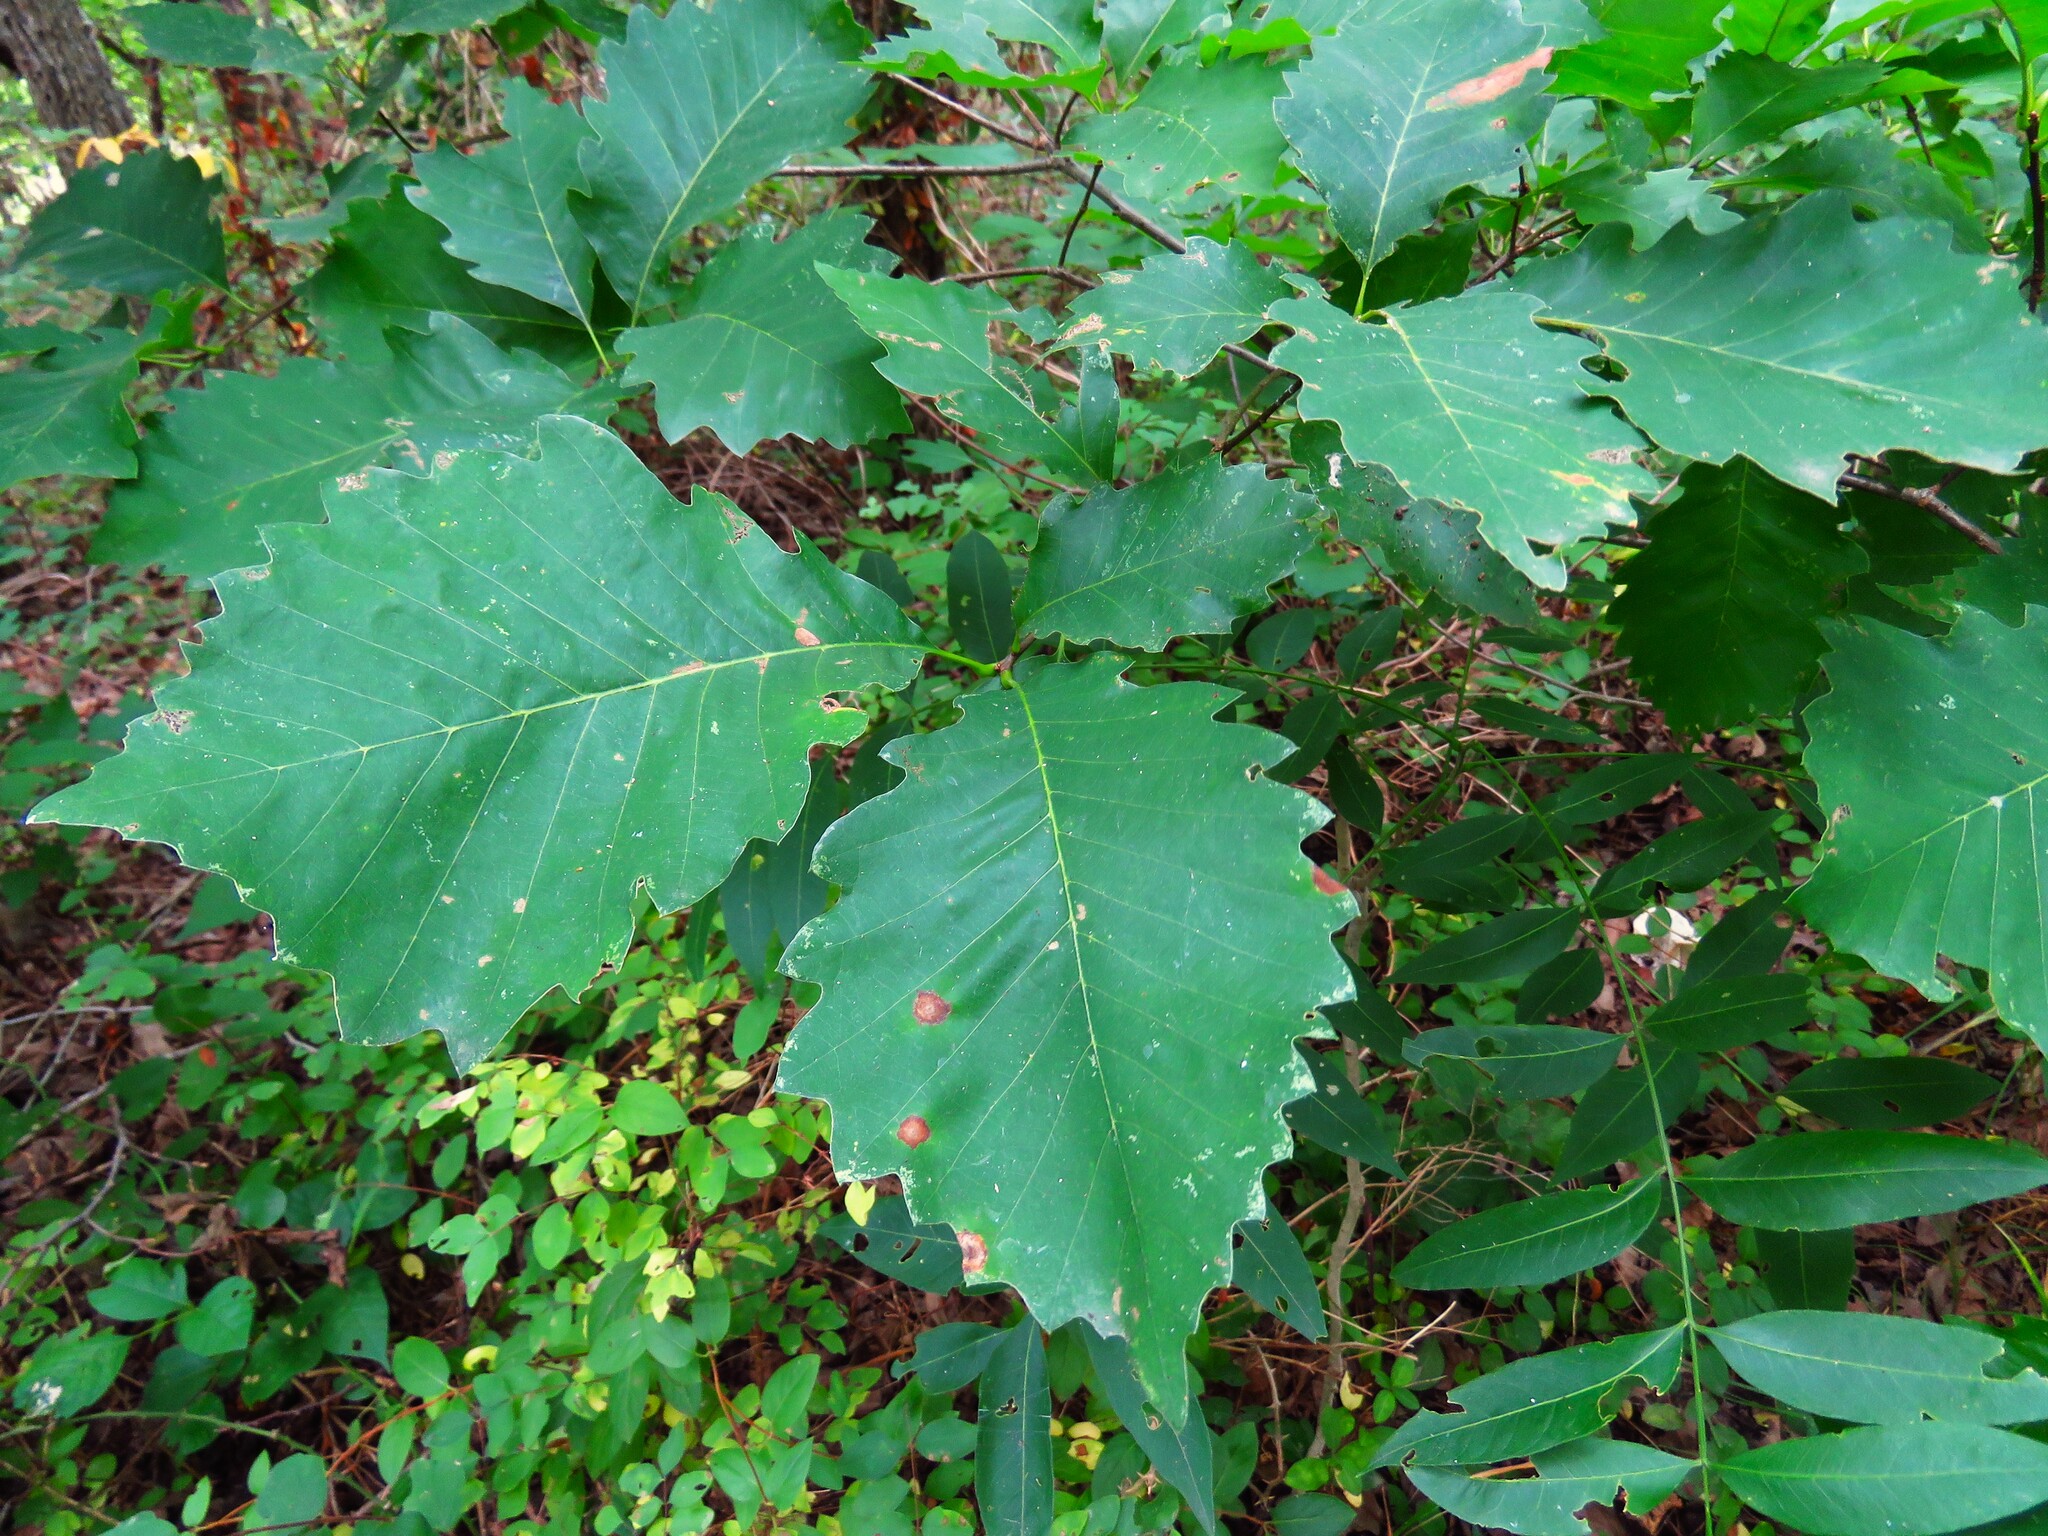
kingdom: Plantae
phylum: Tracheophyta
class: Magnoliopsida
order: Fagales
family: Fagaceae
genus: Quercus
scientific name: Quercus muehlenbergii
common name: Chinkapin oak
